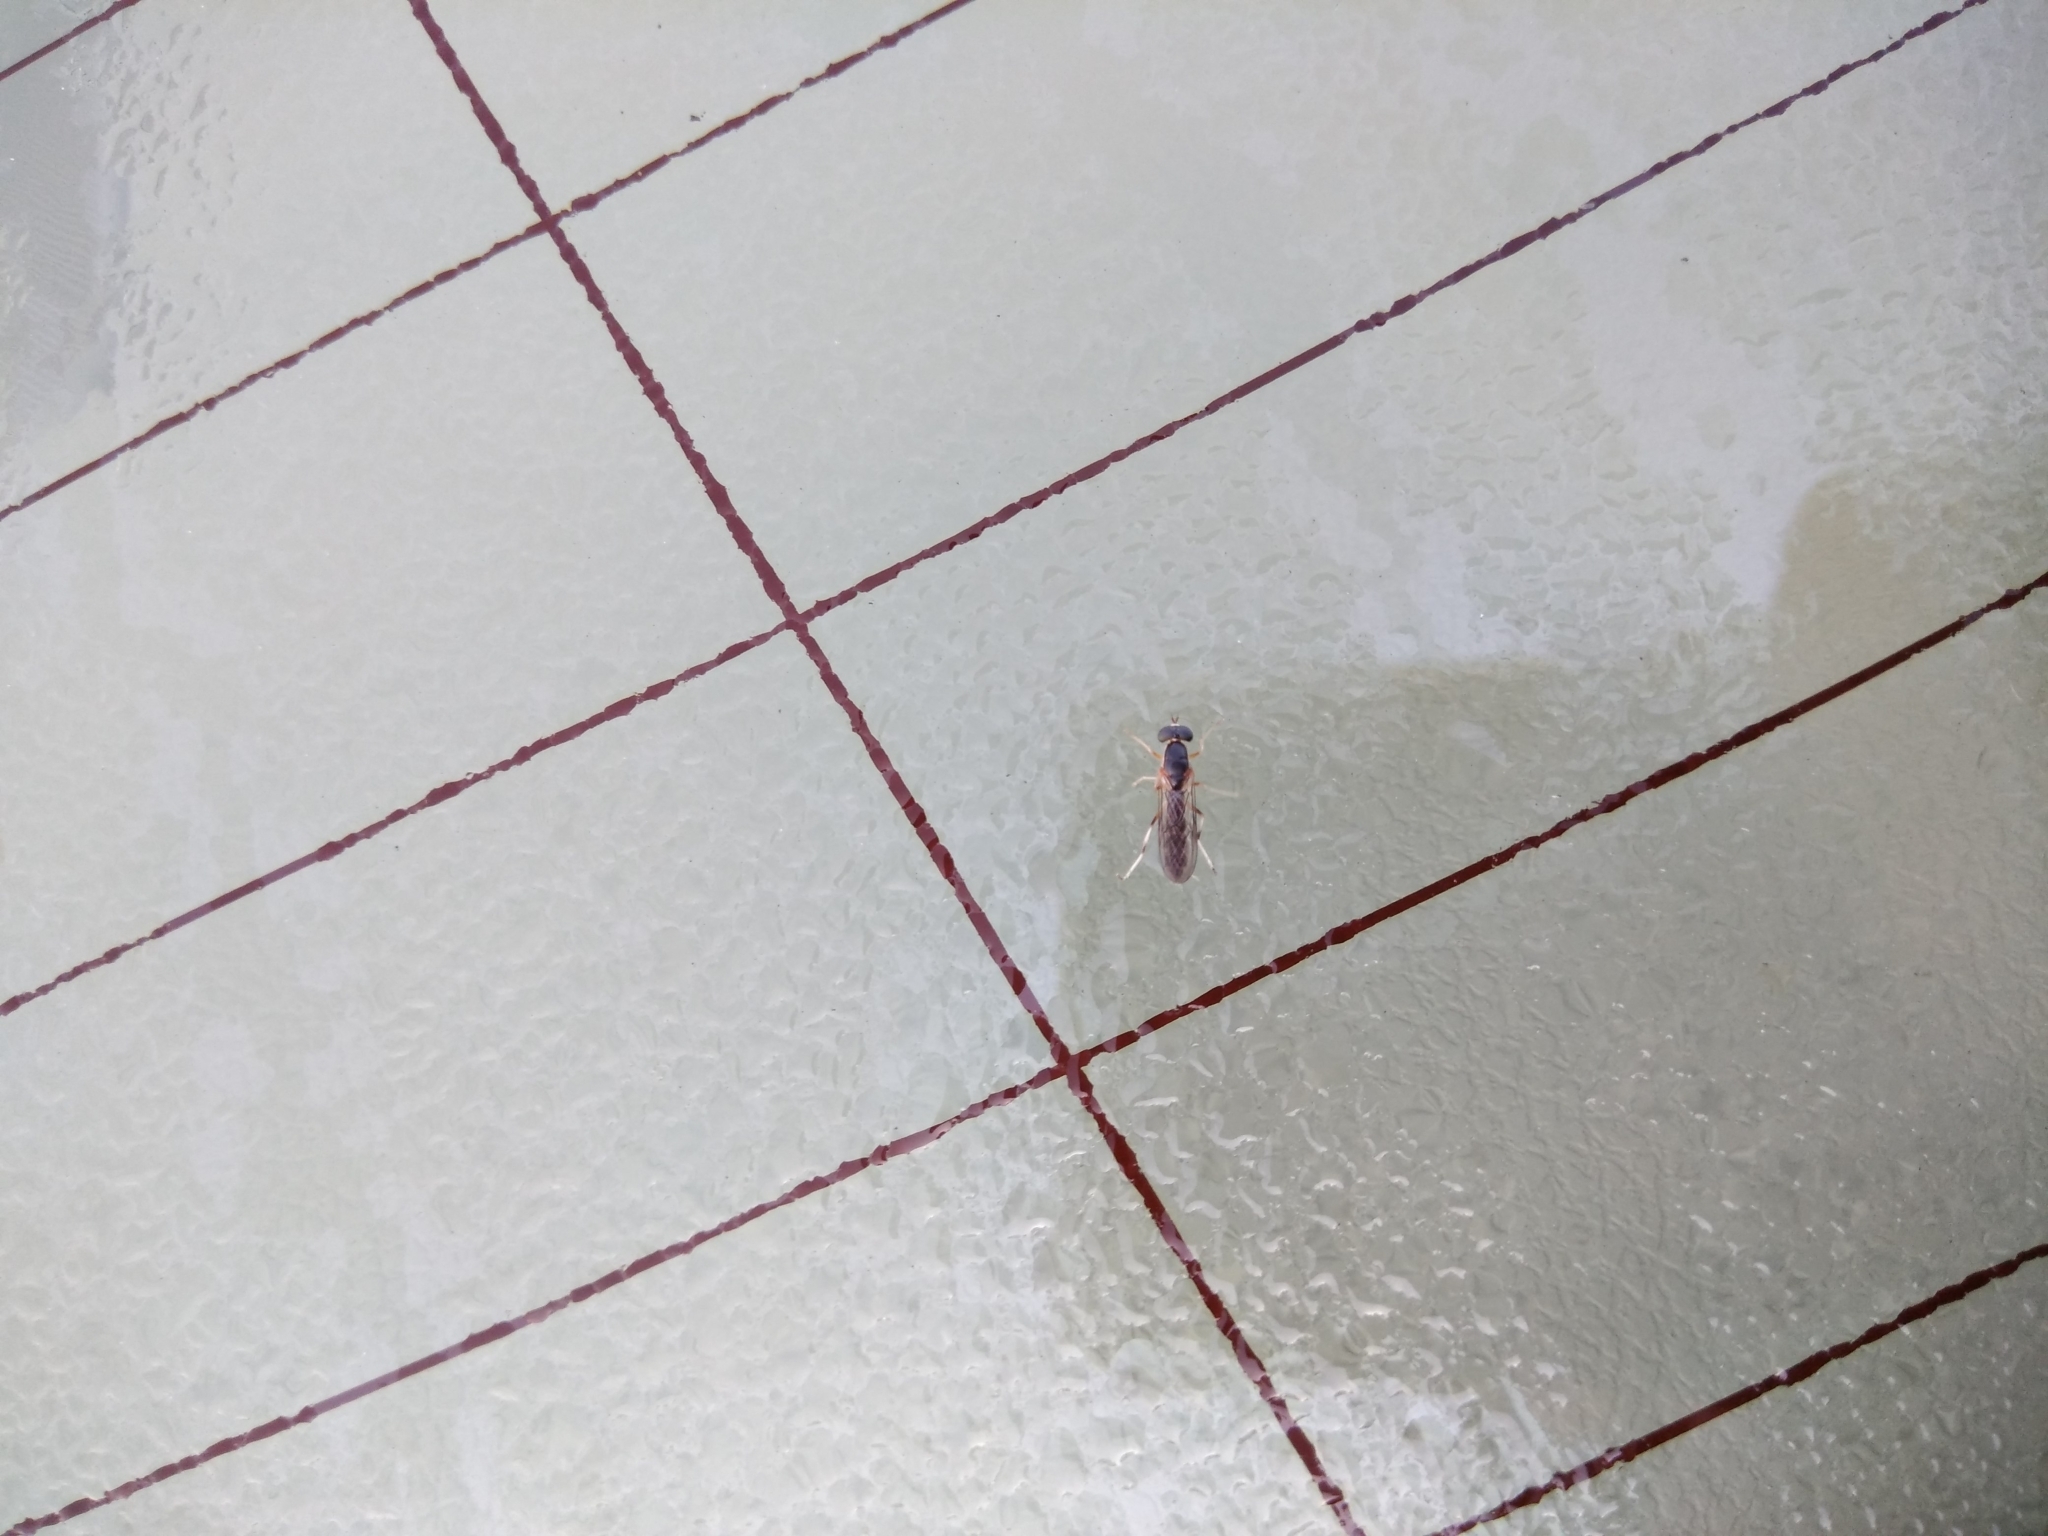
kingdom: Animalia
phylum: Arthropoda
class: Insecta
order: Diptera
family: Stratiomyidae
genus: Merosargus
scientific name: Merosargus caeruleifrons
